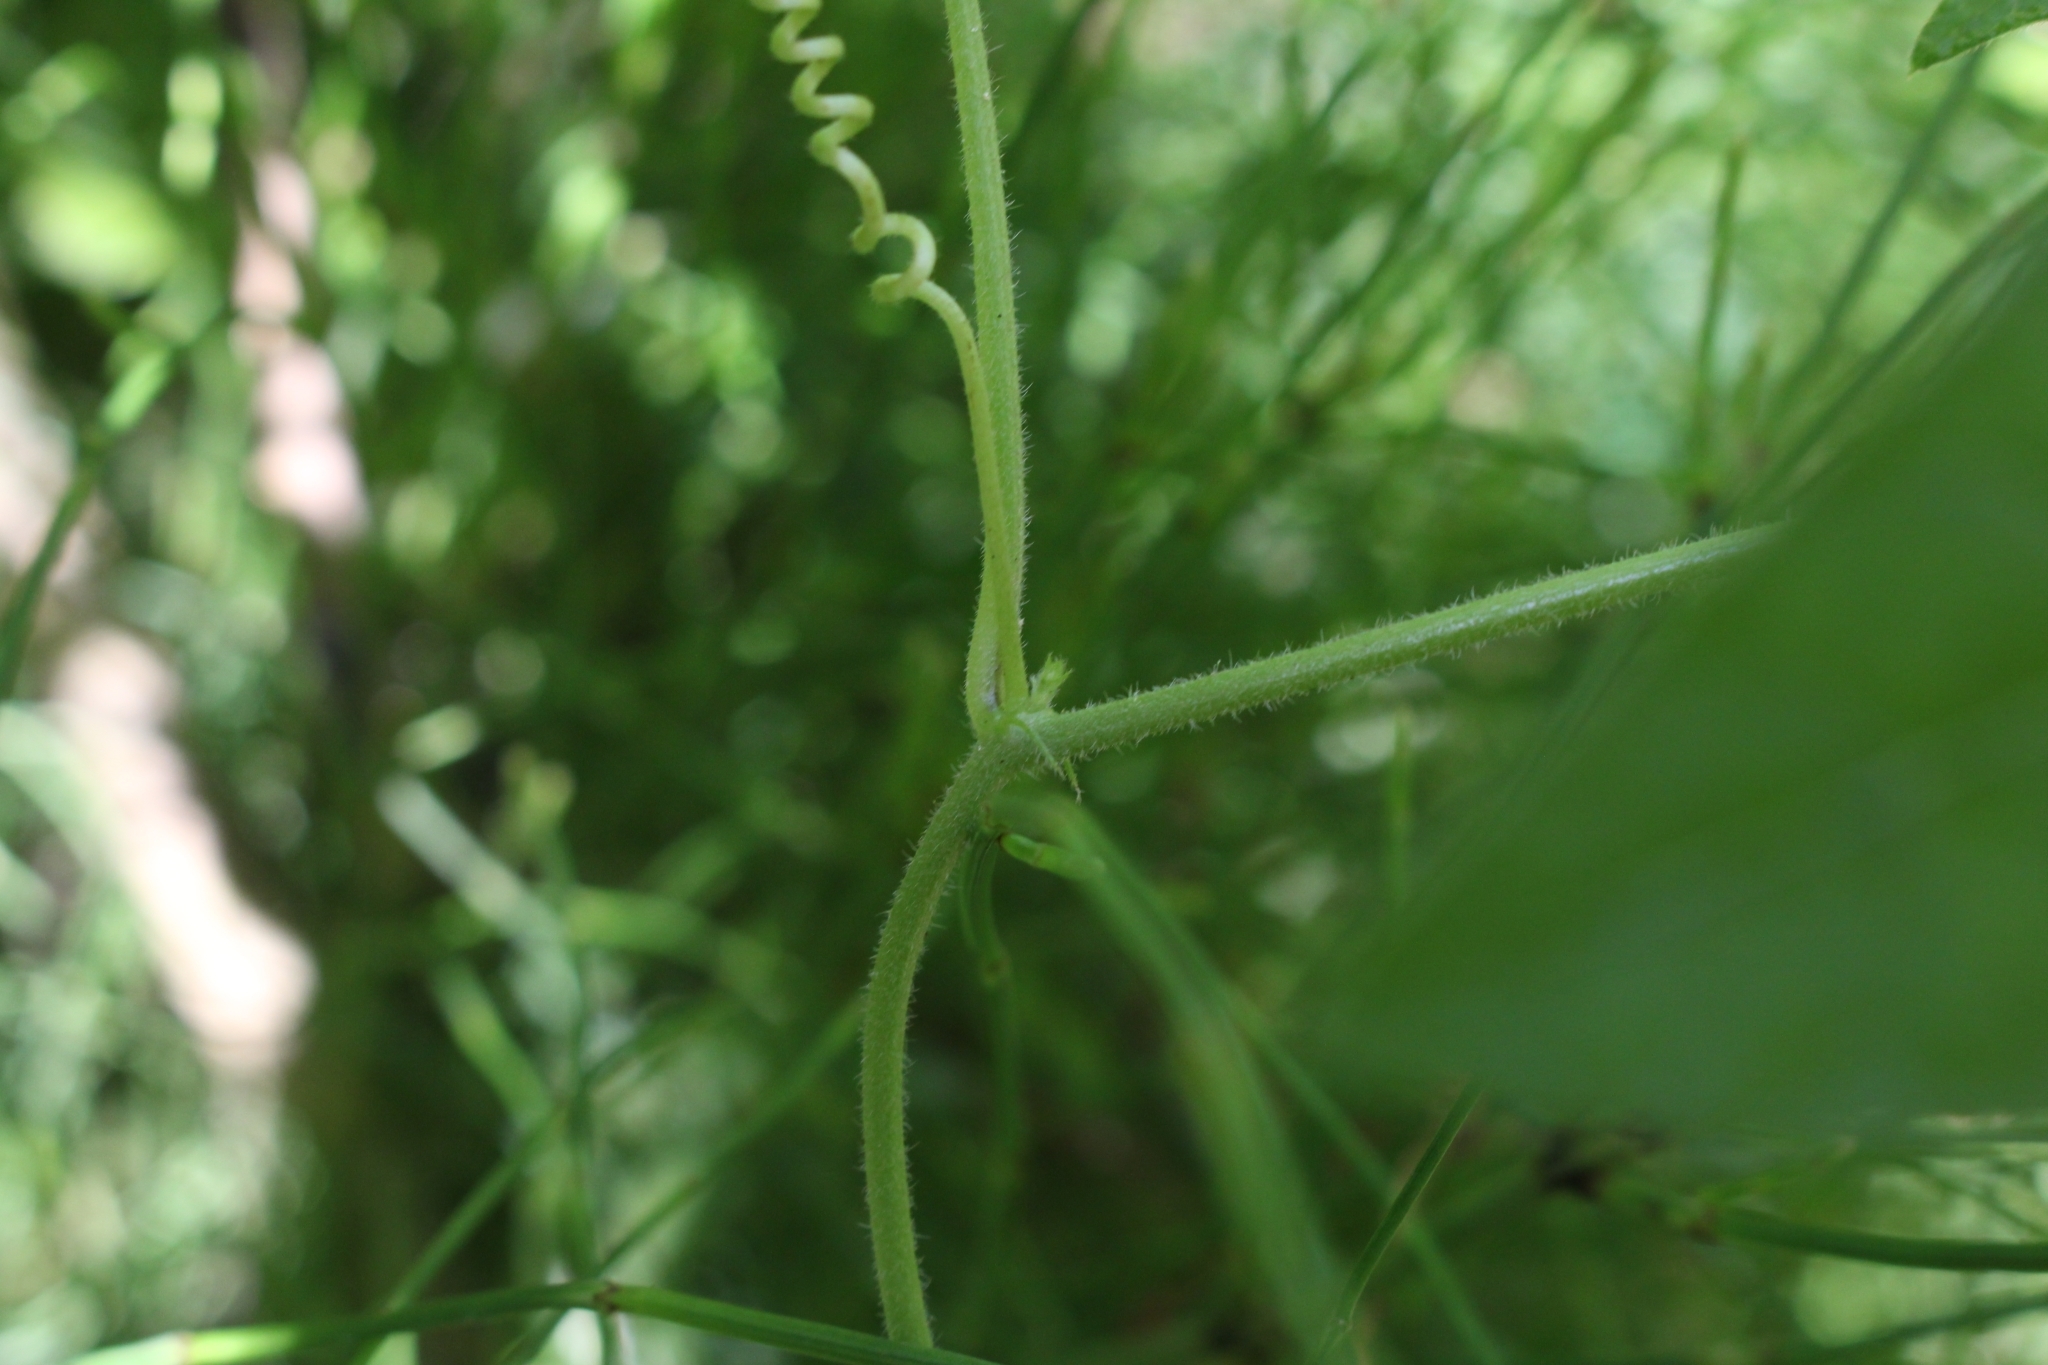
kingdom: Plantae
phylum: Tracheophyta
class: Magnoliopsida
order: Malpighiales
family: Passifloraceae
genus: Passiflora
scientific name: Passiflora sexflora
